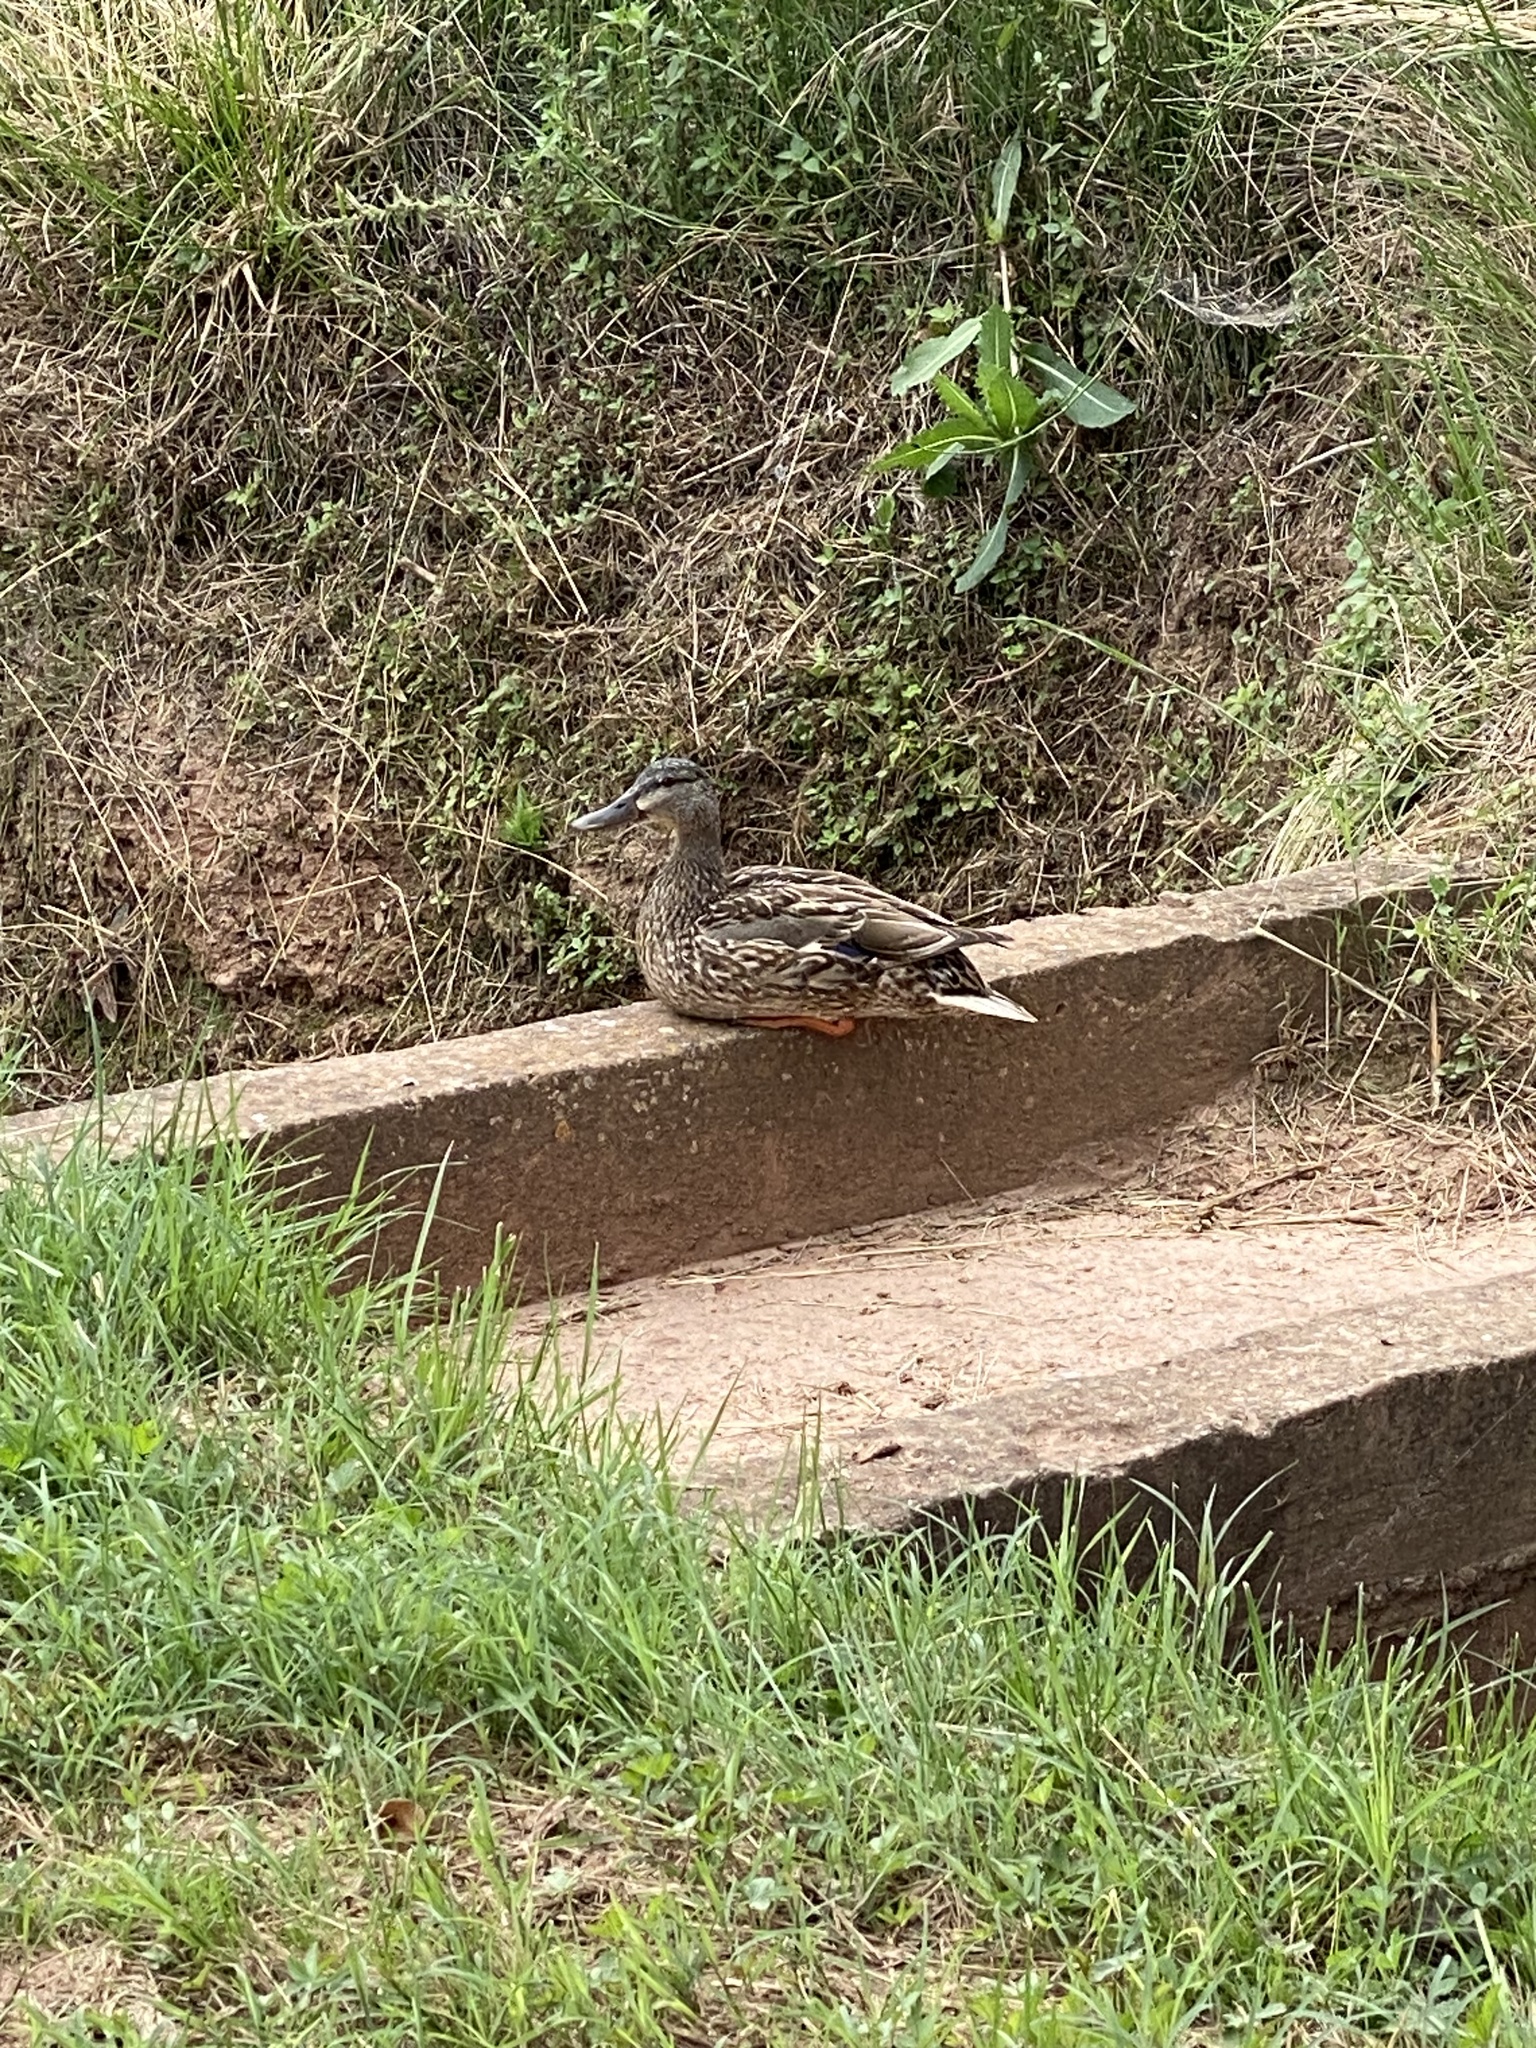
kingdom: Animalia
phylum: Chordata
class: Aves
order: Anseriformes
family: Anatidae
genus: Anas
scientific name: Anas platyrhynchos
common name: Mallard
